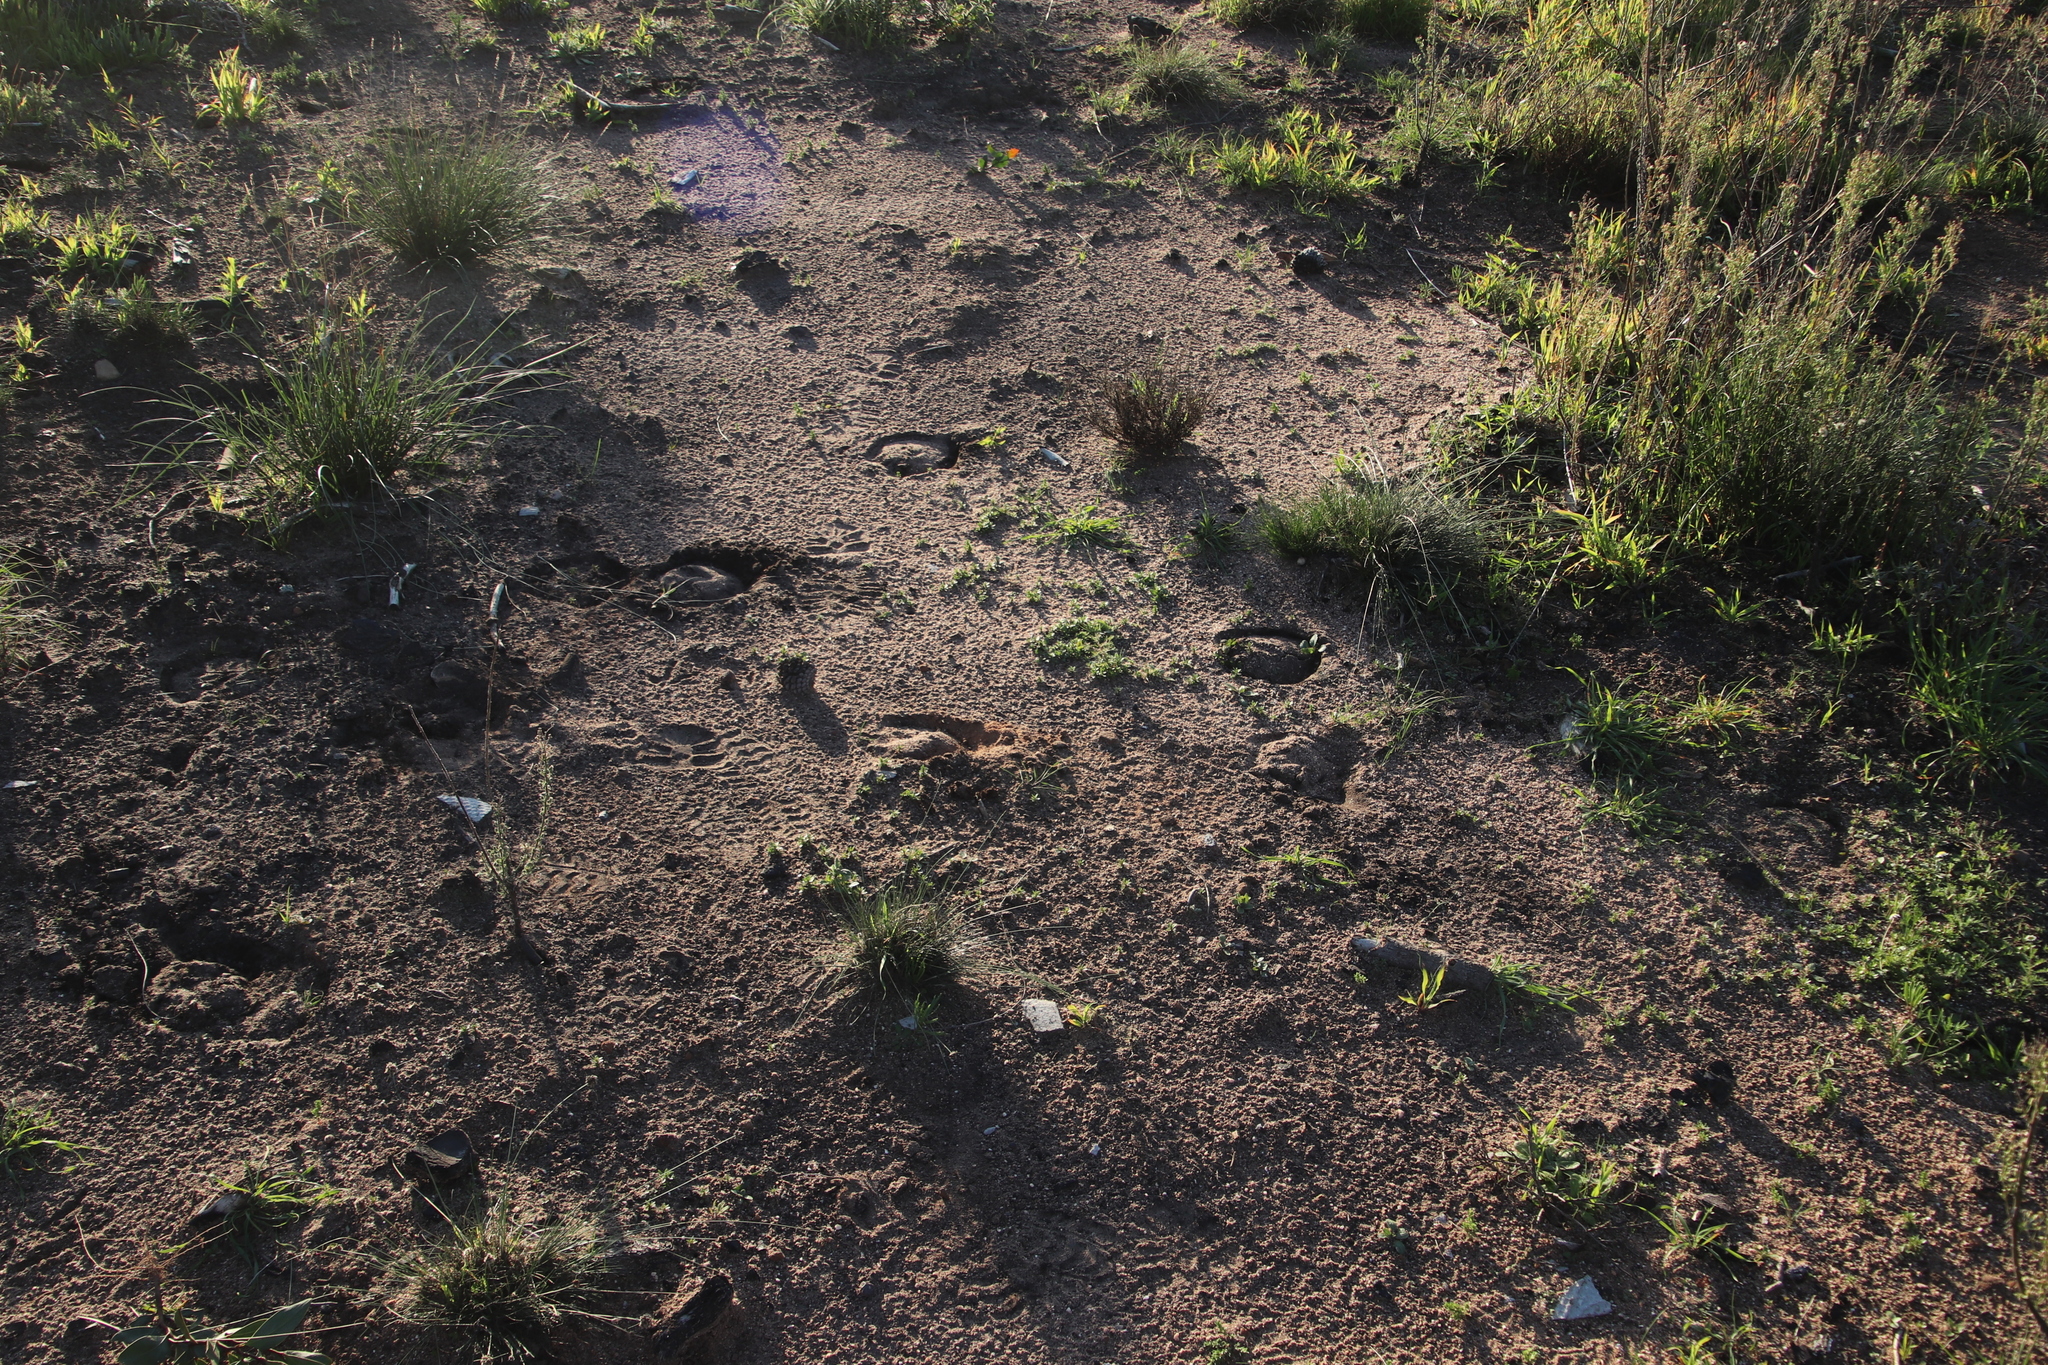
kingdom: Animalia
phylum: Chordata
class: Mammalia
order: Perissodactyla
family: Equidae
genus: Equus
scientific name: Equus caballus
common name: Horse
